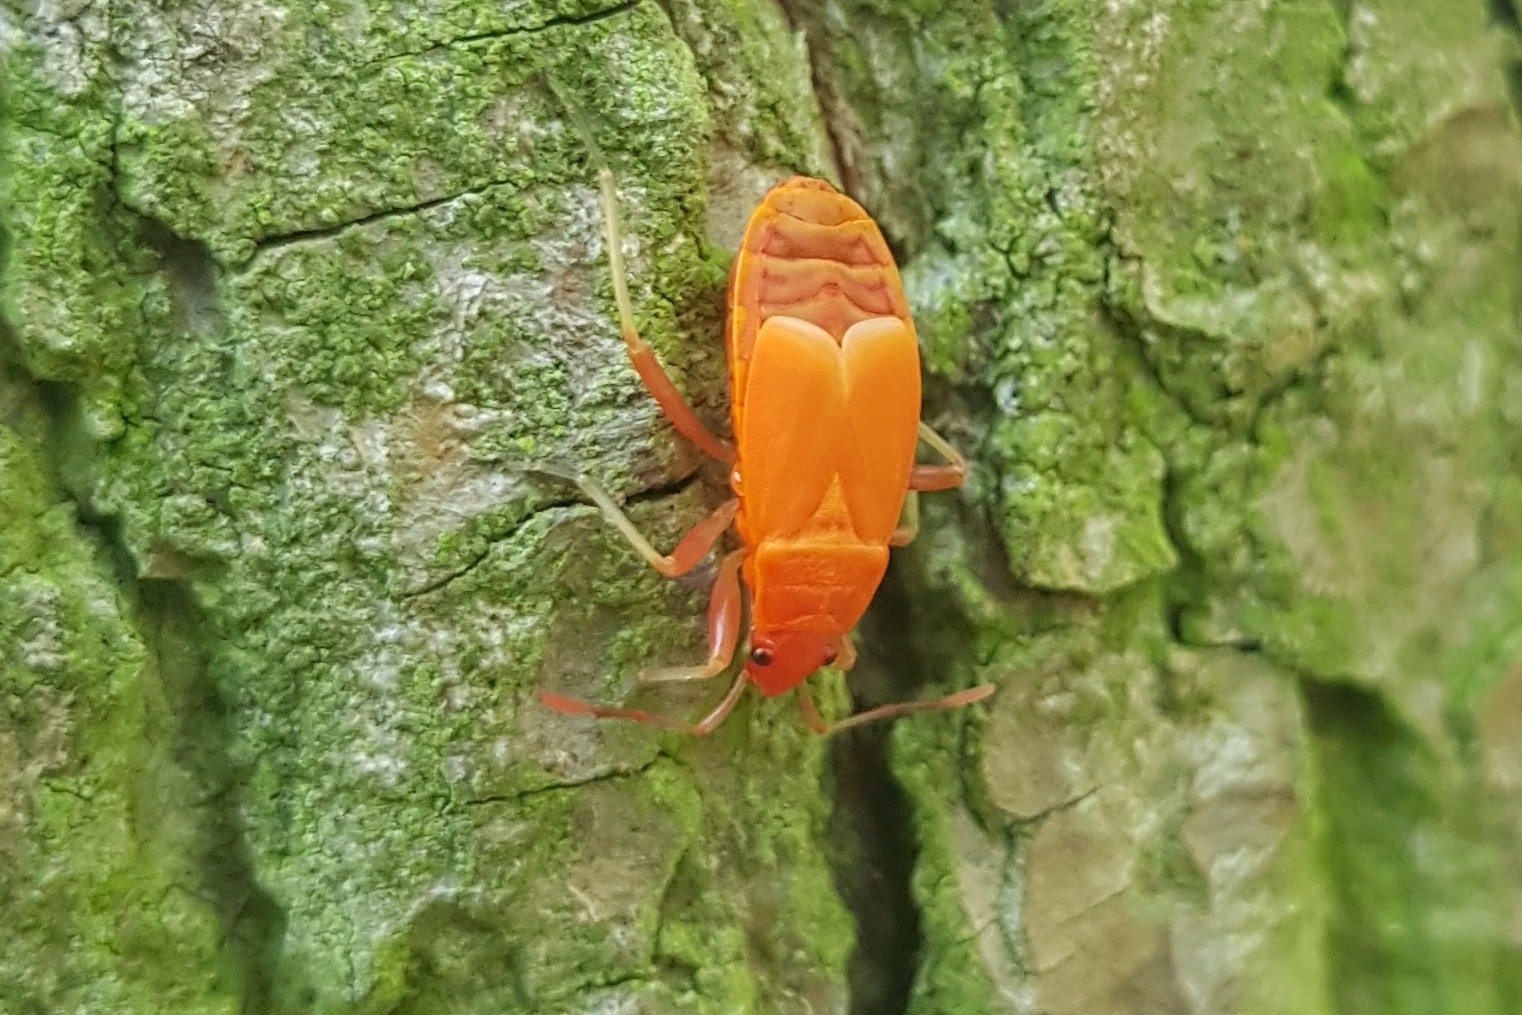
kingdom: Animalia
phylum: Arthropoda
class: Insecta
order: Hemiptera
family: Pyrrhocoridae
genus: Pyrrhocoris
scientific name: Pyrrhocoris apterus
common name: Firebug
